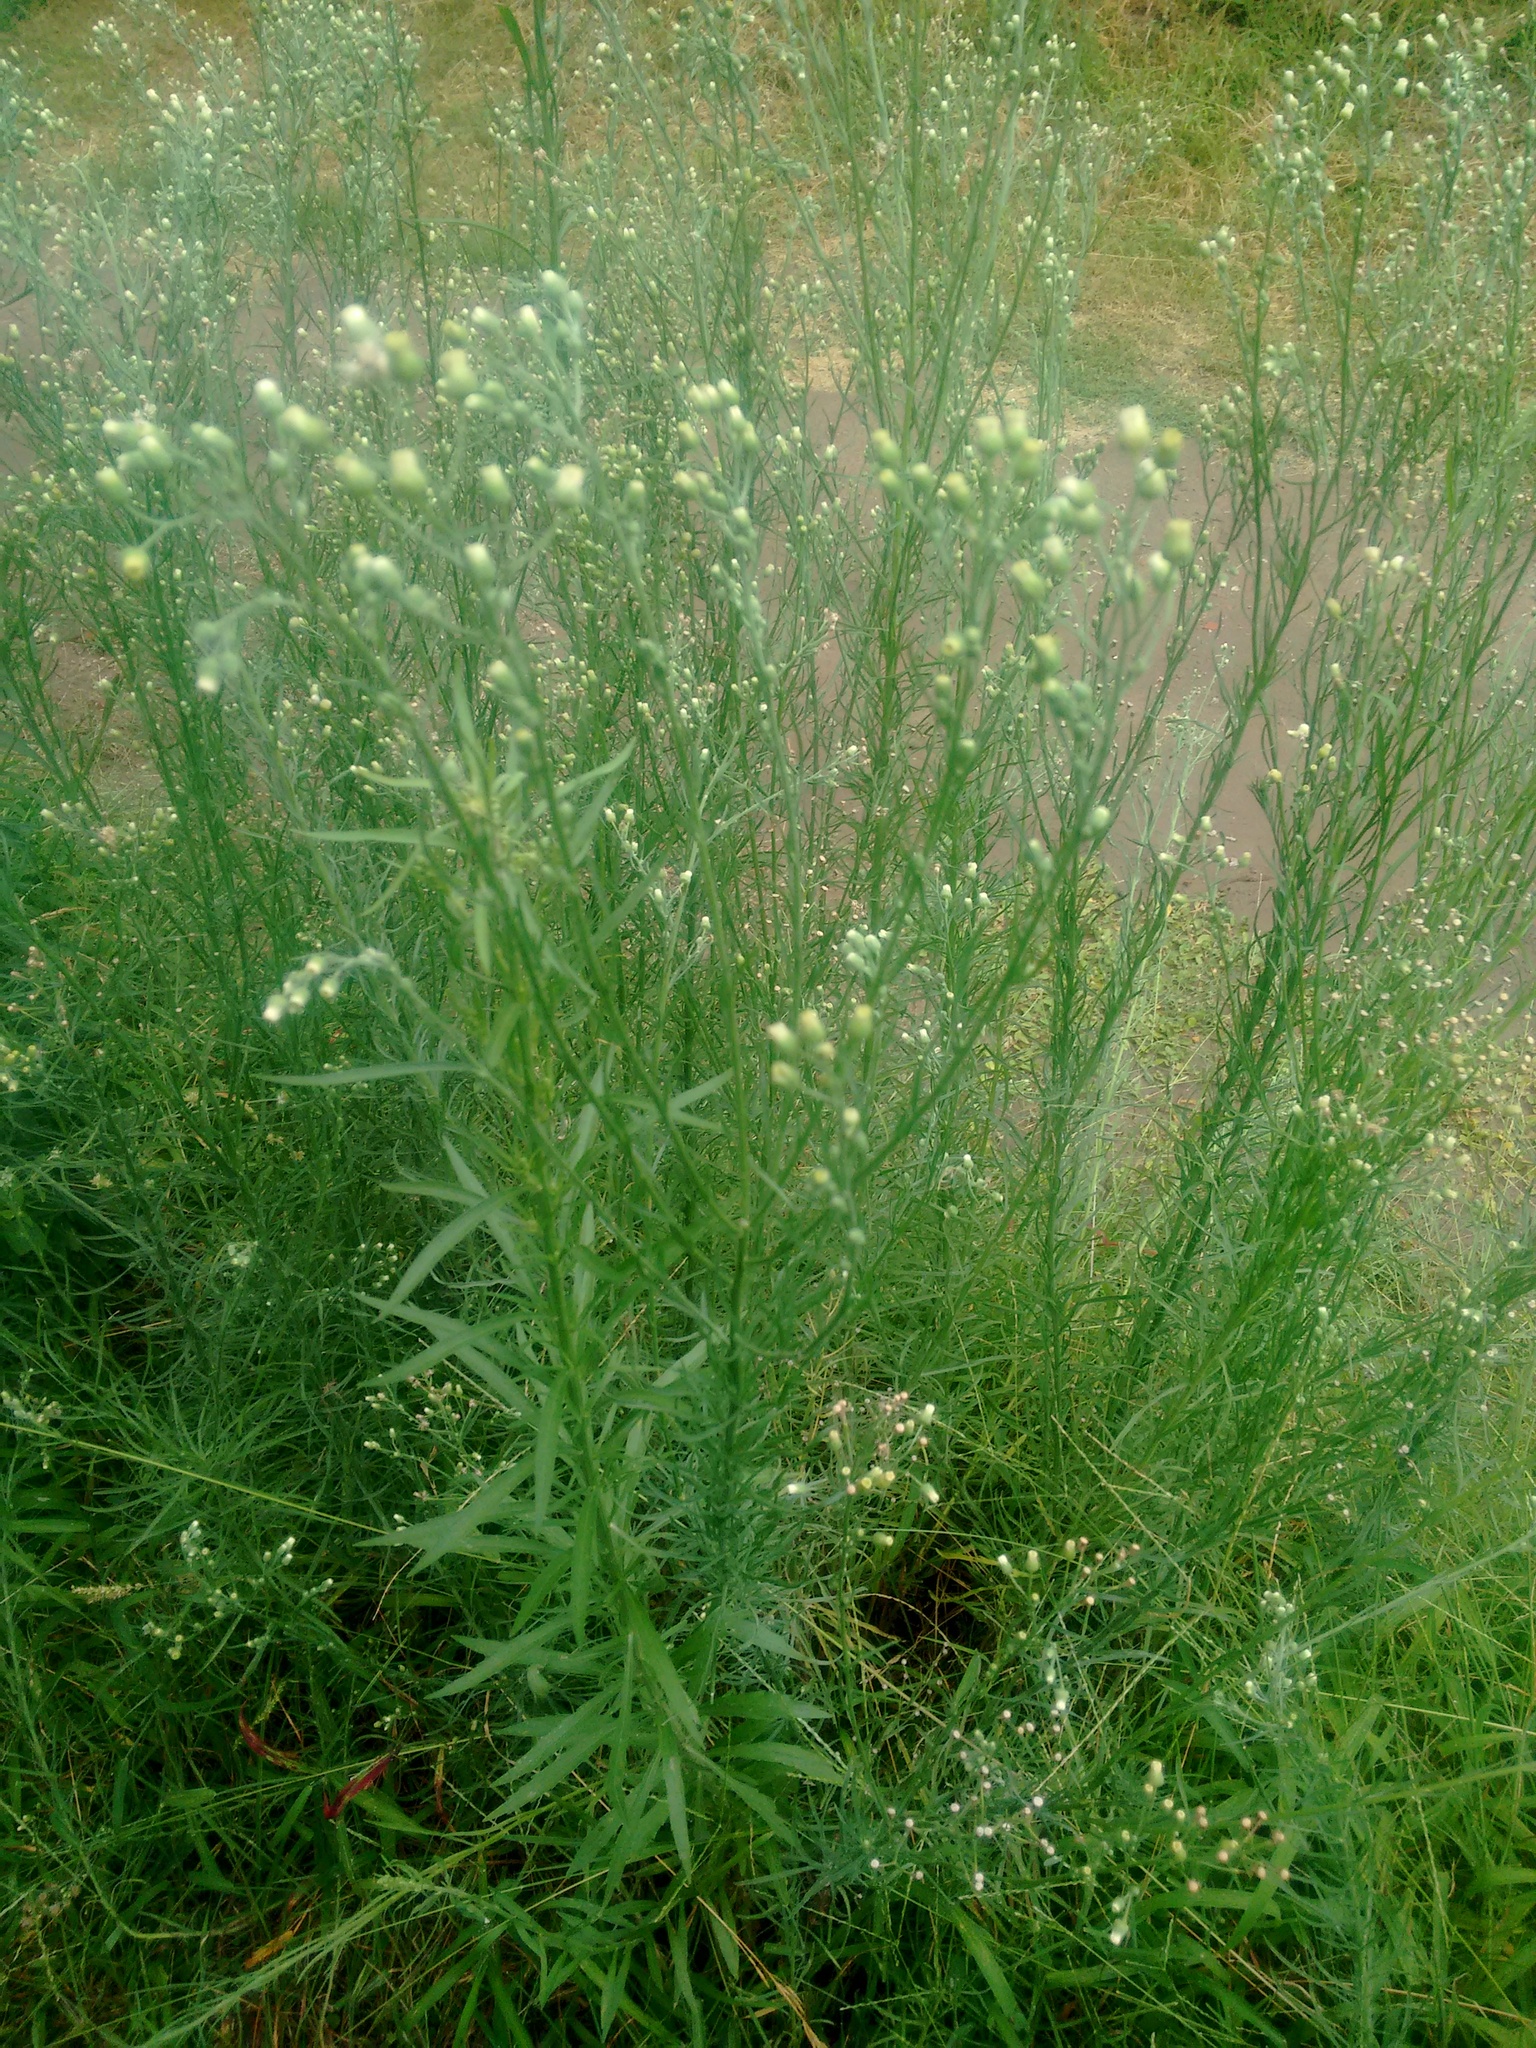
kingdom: Plantae
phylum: Tracheophyta
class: Magnoliopsida
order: Asterales
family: Asteraceae
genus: Erigeron
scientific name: Erigeron bonariensis
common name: Argentine fleabane
